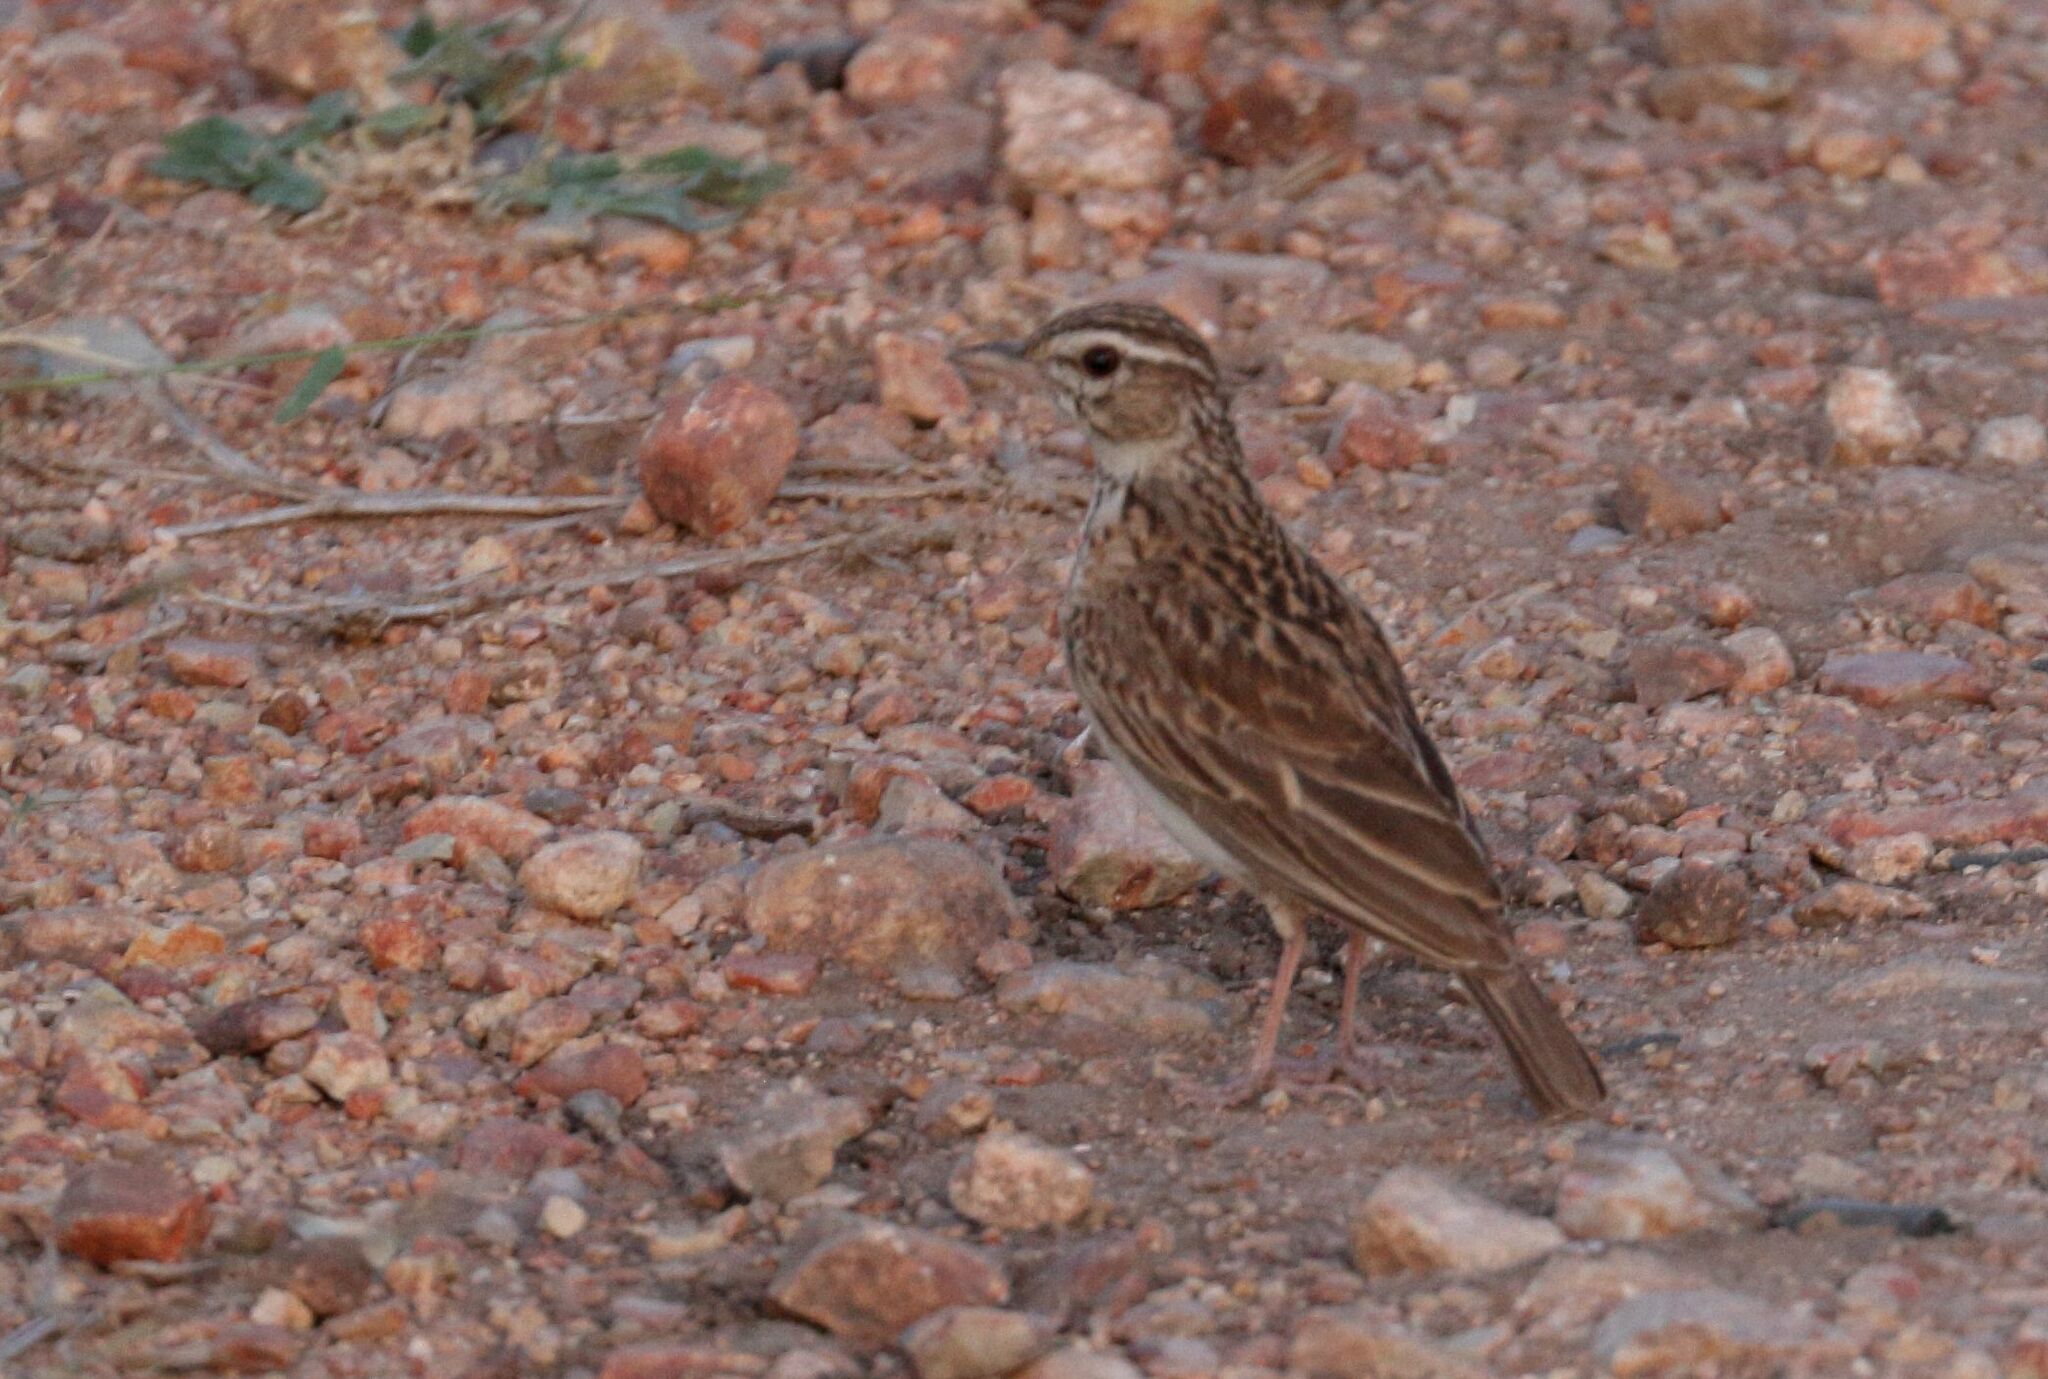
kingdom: Animalia
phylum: Chordata
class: Aves
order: Passeriformes
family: Alaudidae
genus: Calendulauda
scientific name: Calendulauda sabota
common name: Sabota lark
